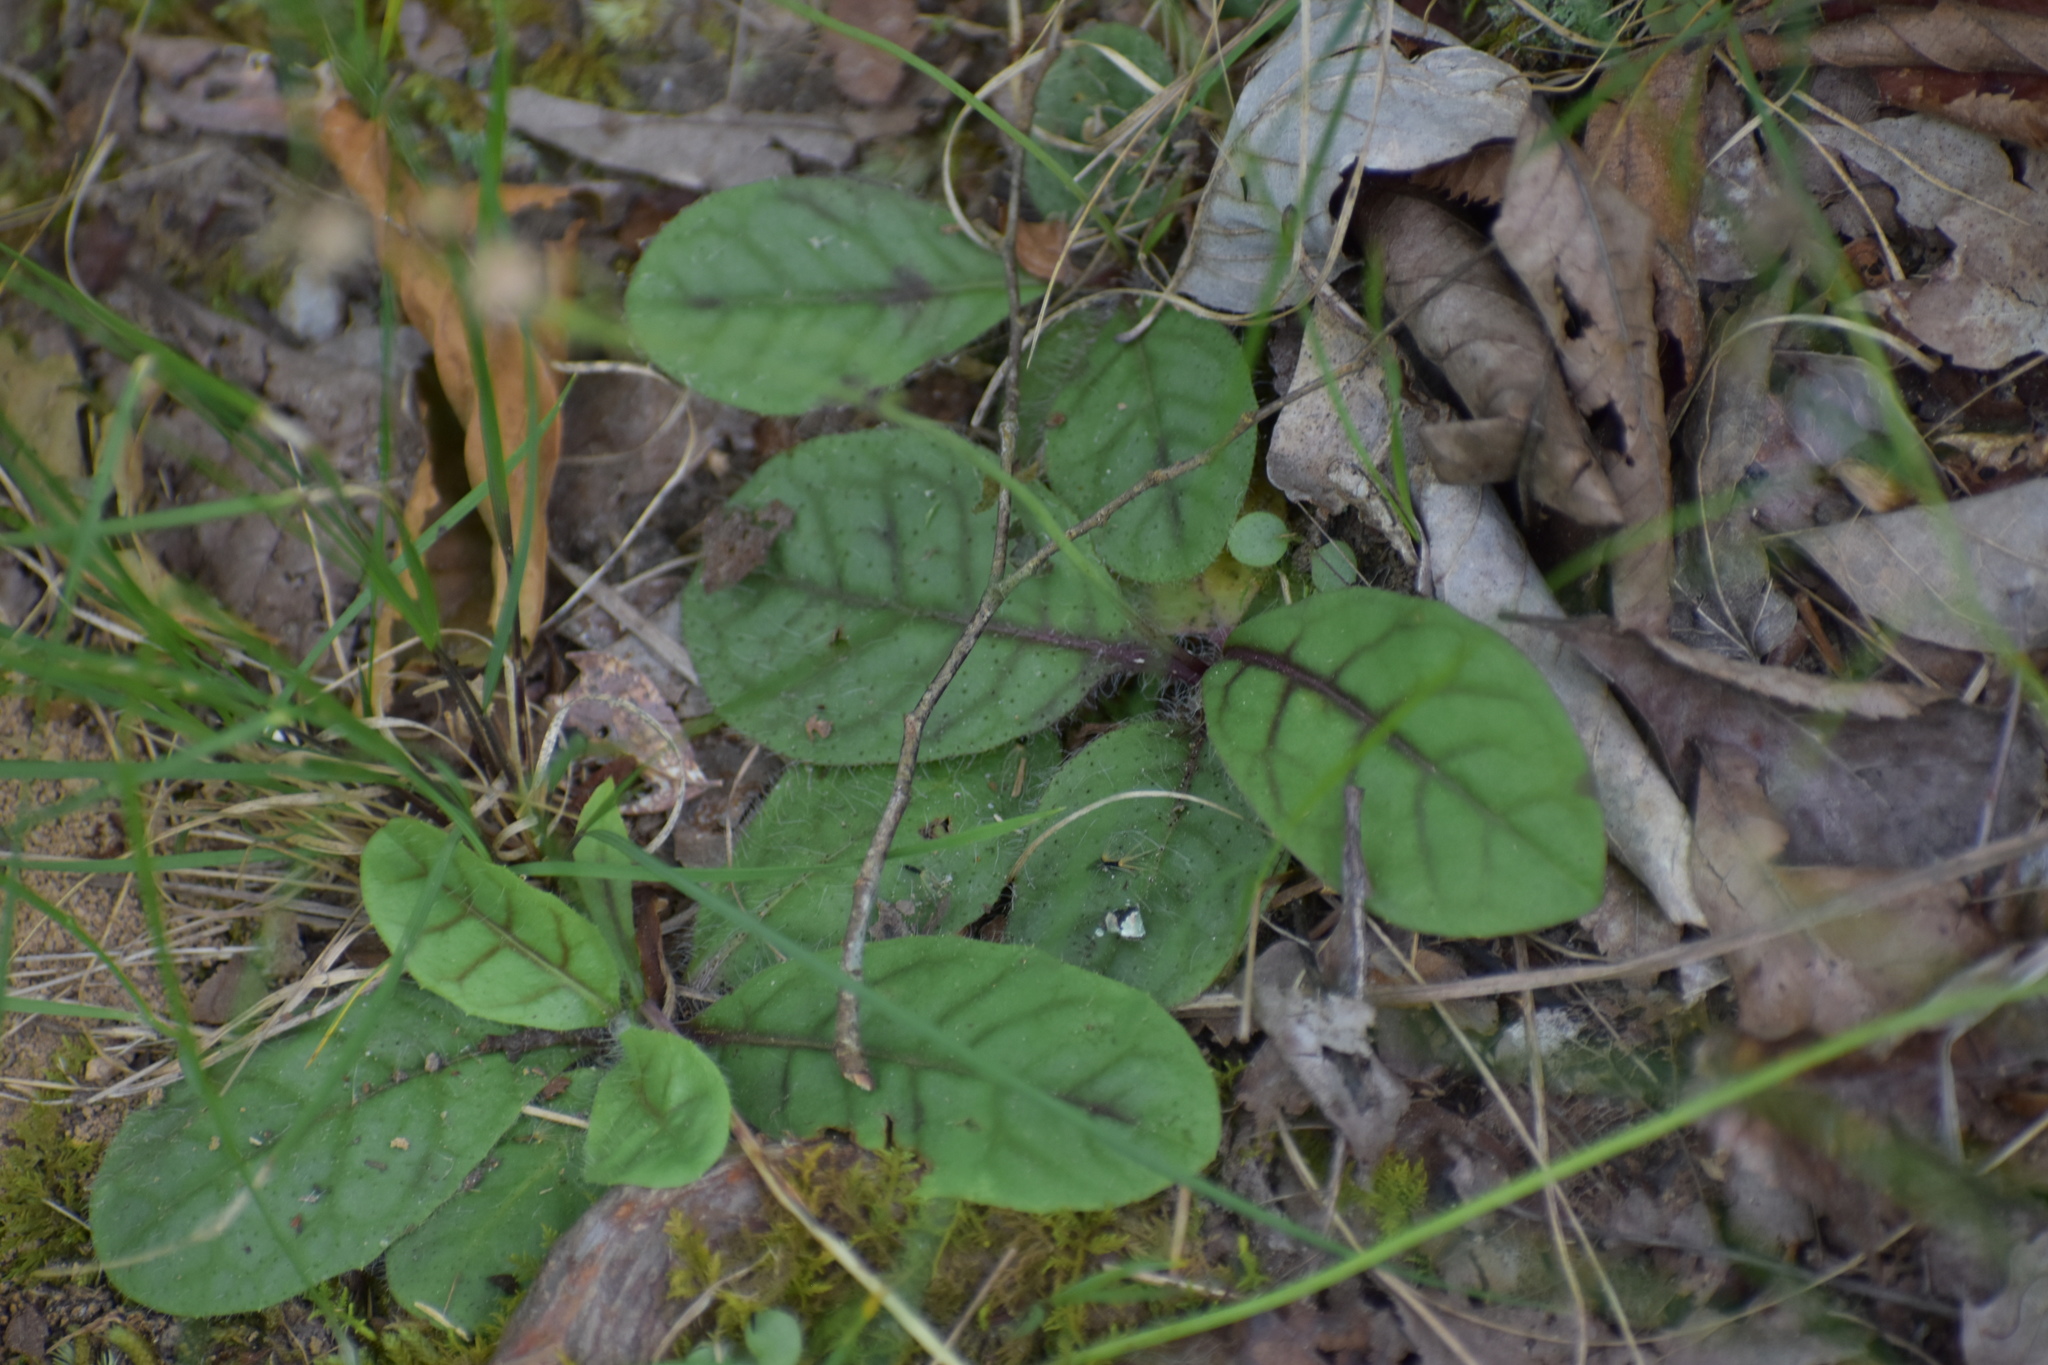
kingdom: Plantae
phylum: Tracheophyta
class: Magnoliopsida
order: Asterales
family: Asteraceae
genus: Hieracium
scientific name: Hieracium venosum
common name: Rattlesnake hawkweed
